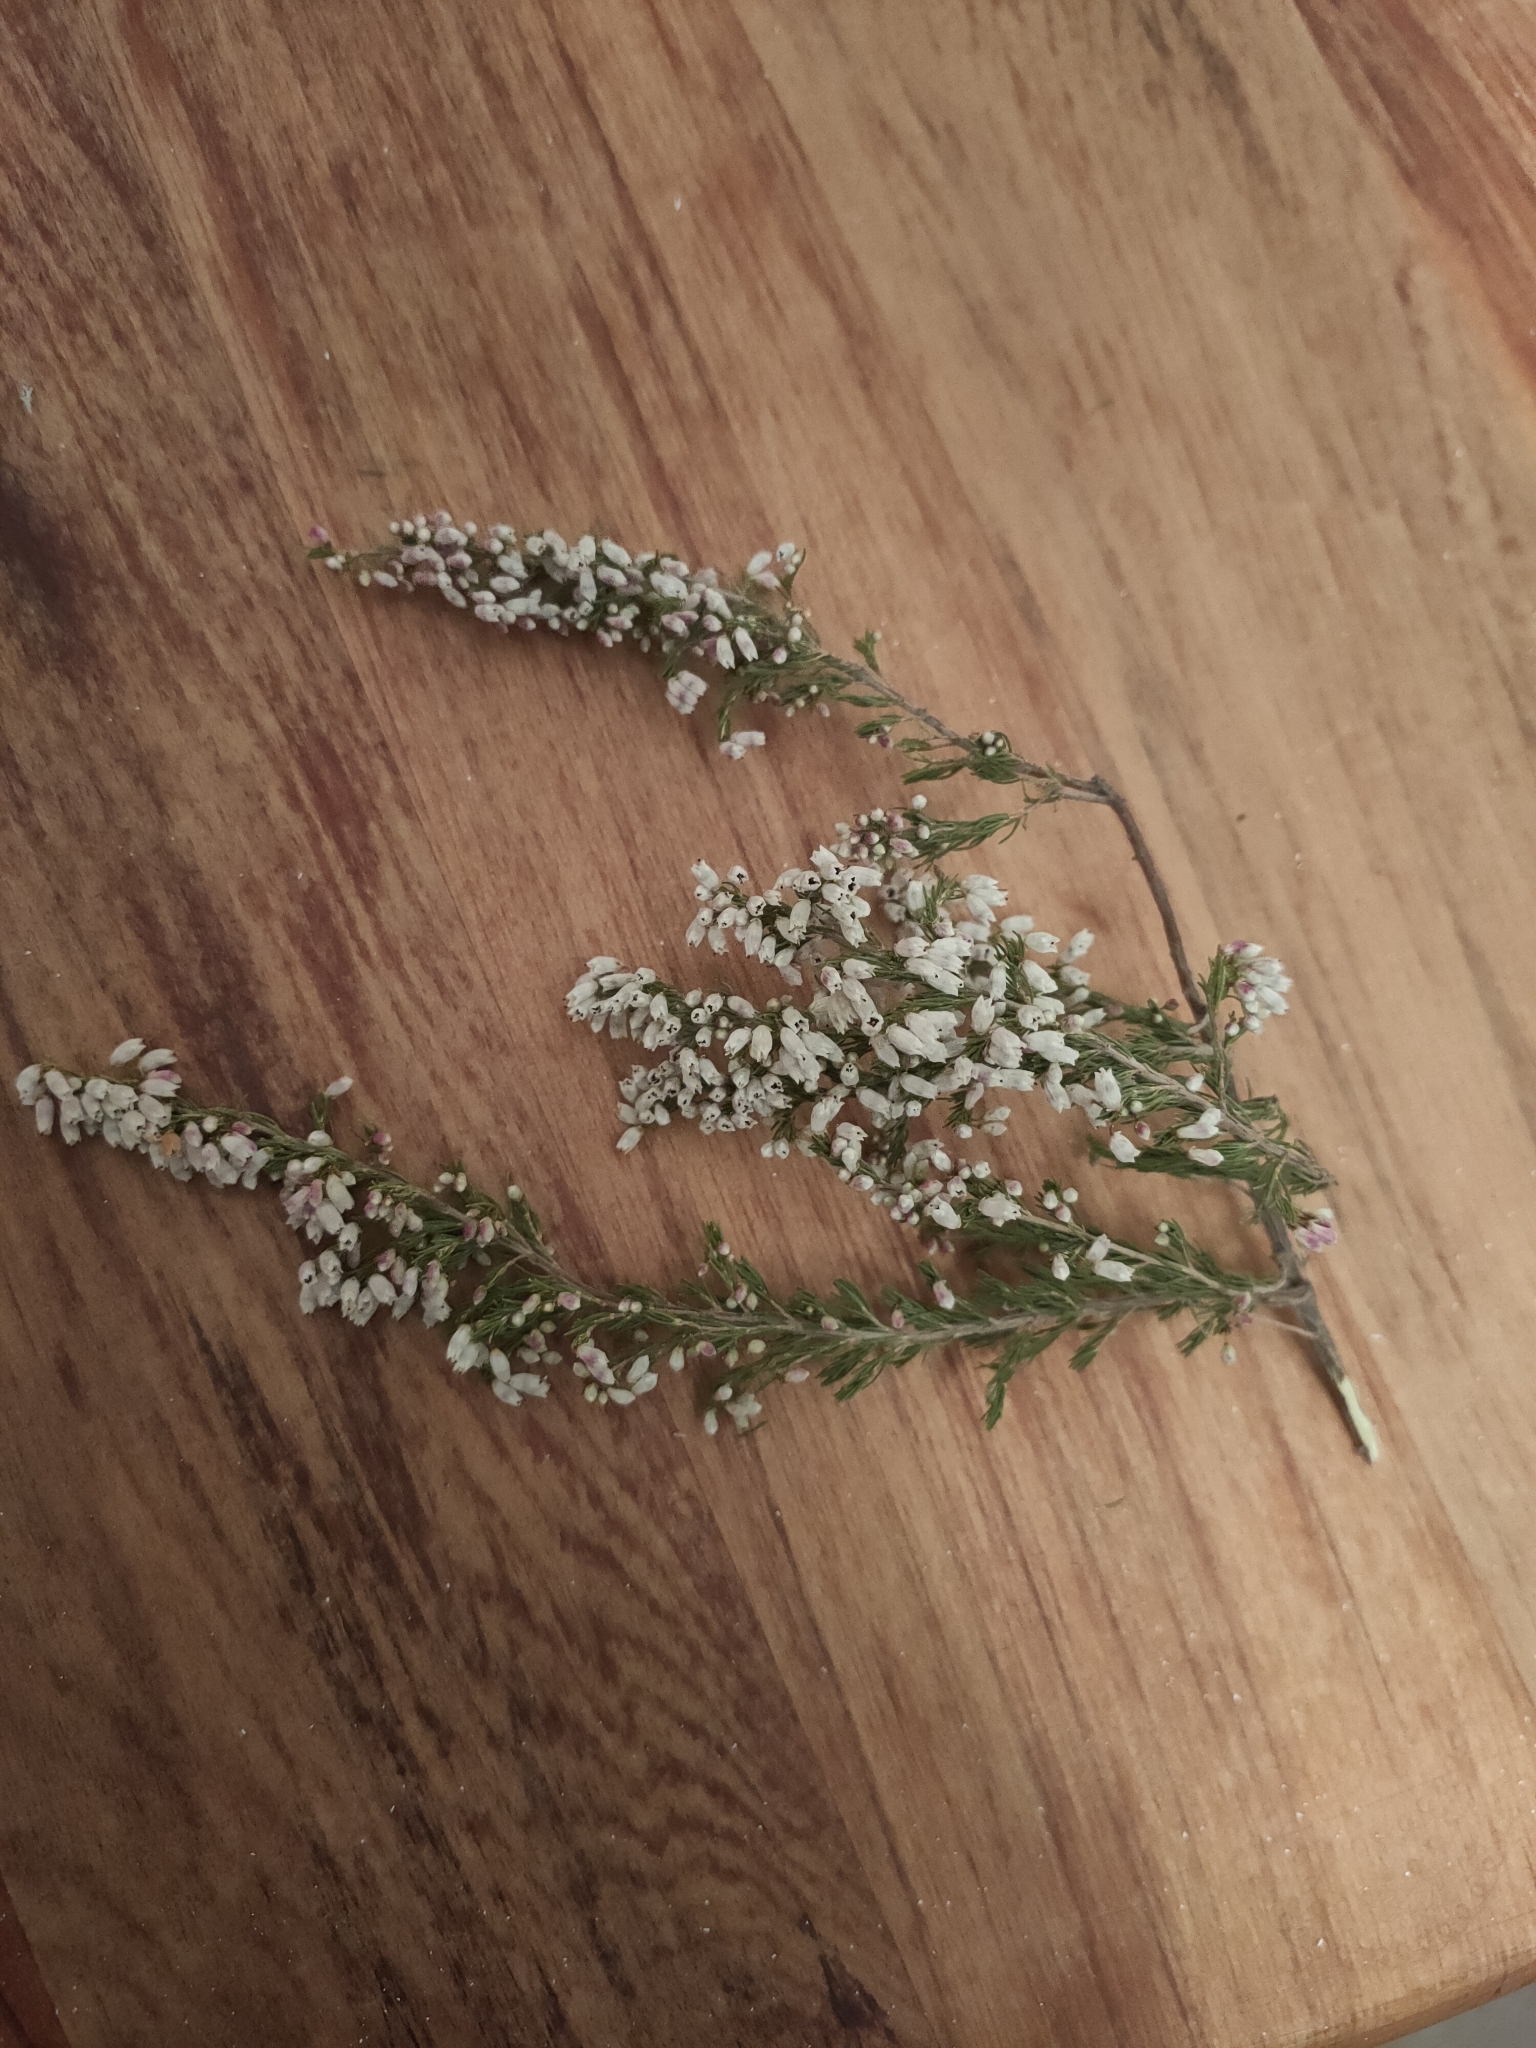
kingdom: Plantae
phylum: Tracheophyta
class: Magnoliopsida
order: Ericales
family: Ericaceae
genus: Erica
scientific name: Erica lusitanica
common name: Spanish heath
